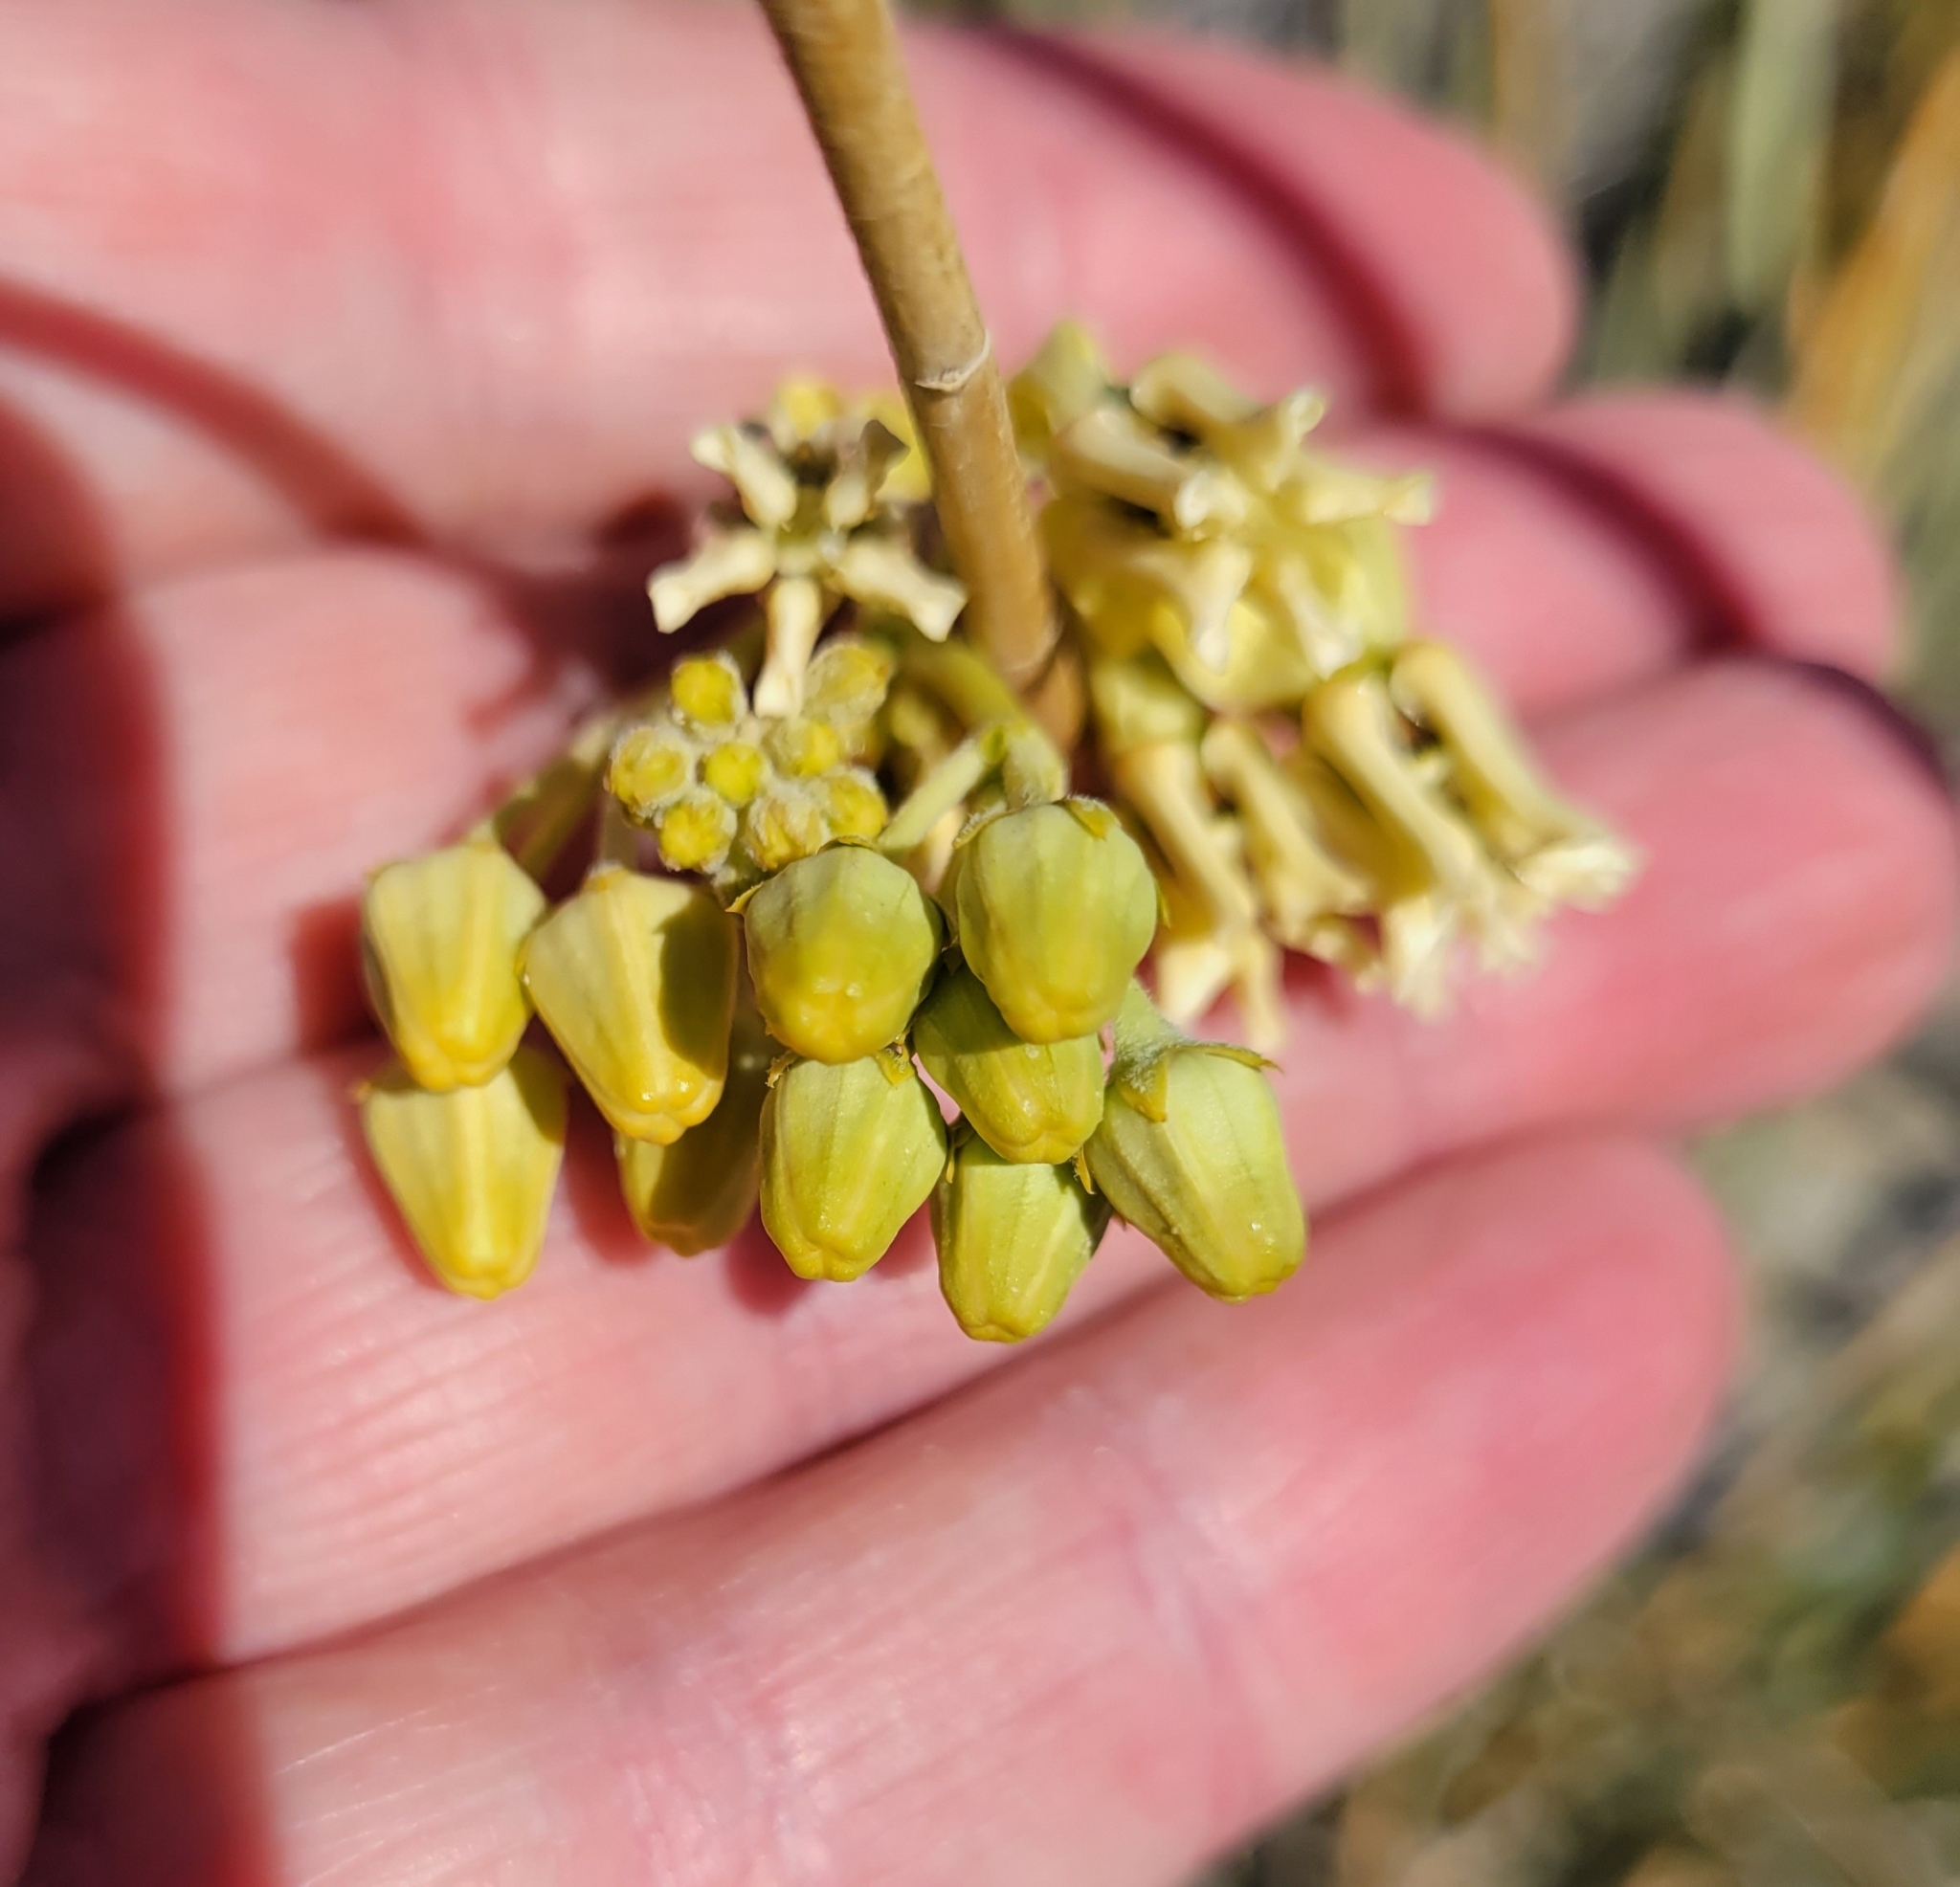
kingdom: Plantae
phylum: Tracheophyta
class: Magnoliopsida
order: Gentianales
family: Apocynaceae
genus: Asclepias
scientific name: Asclepias subulata
